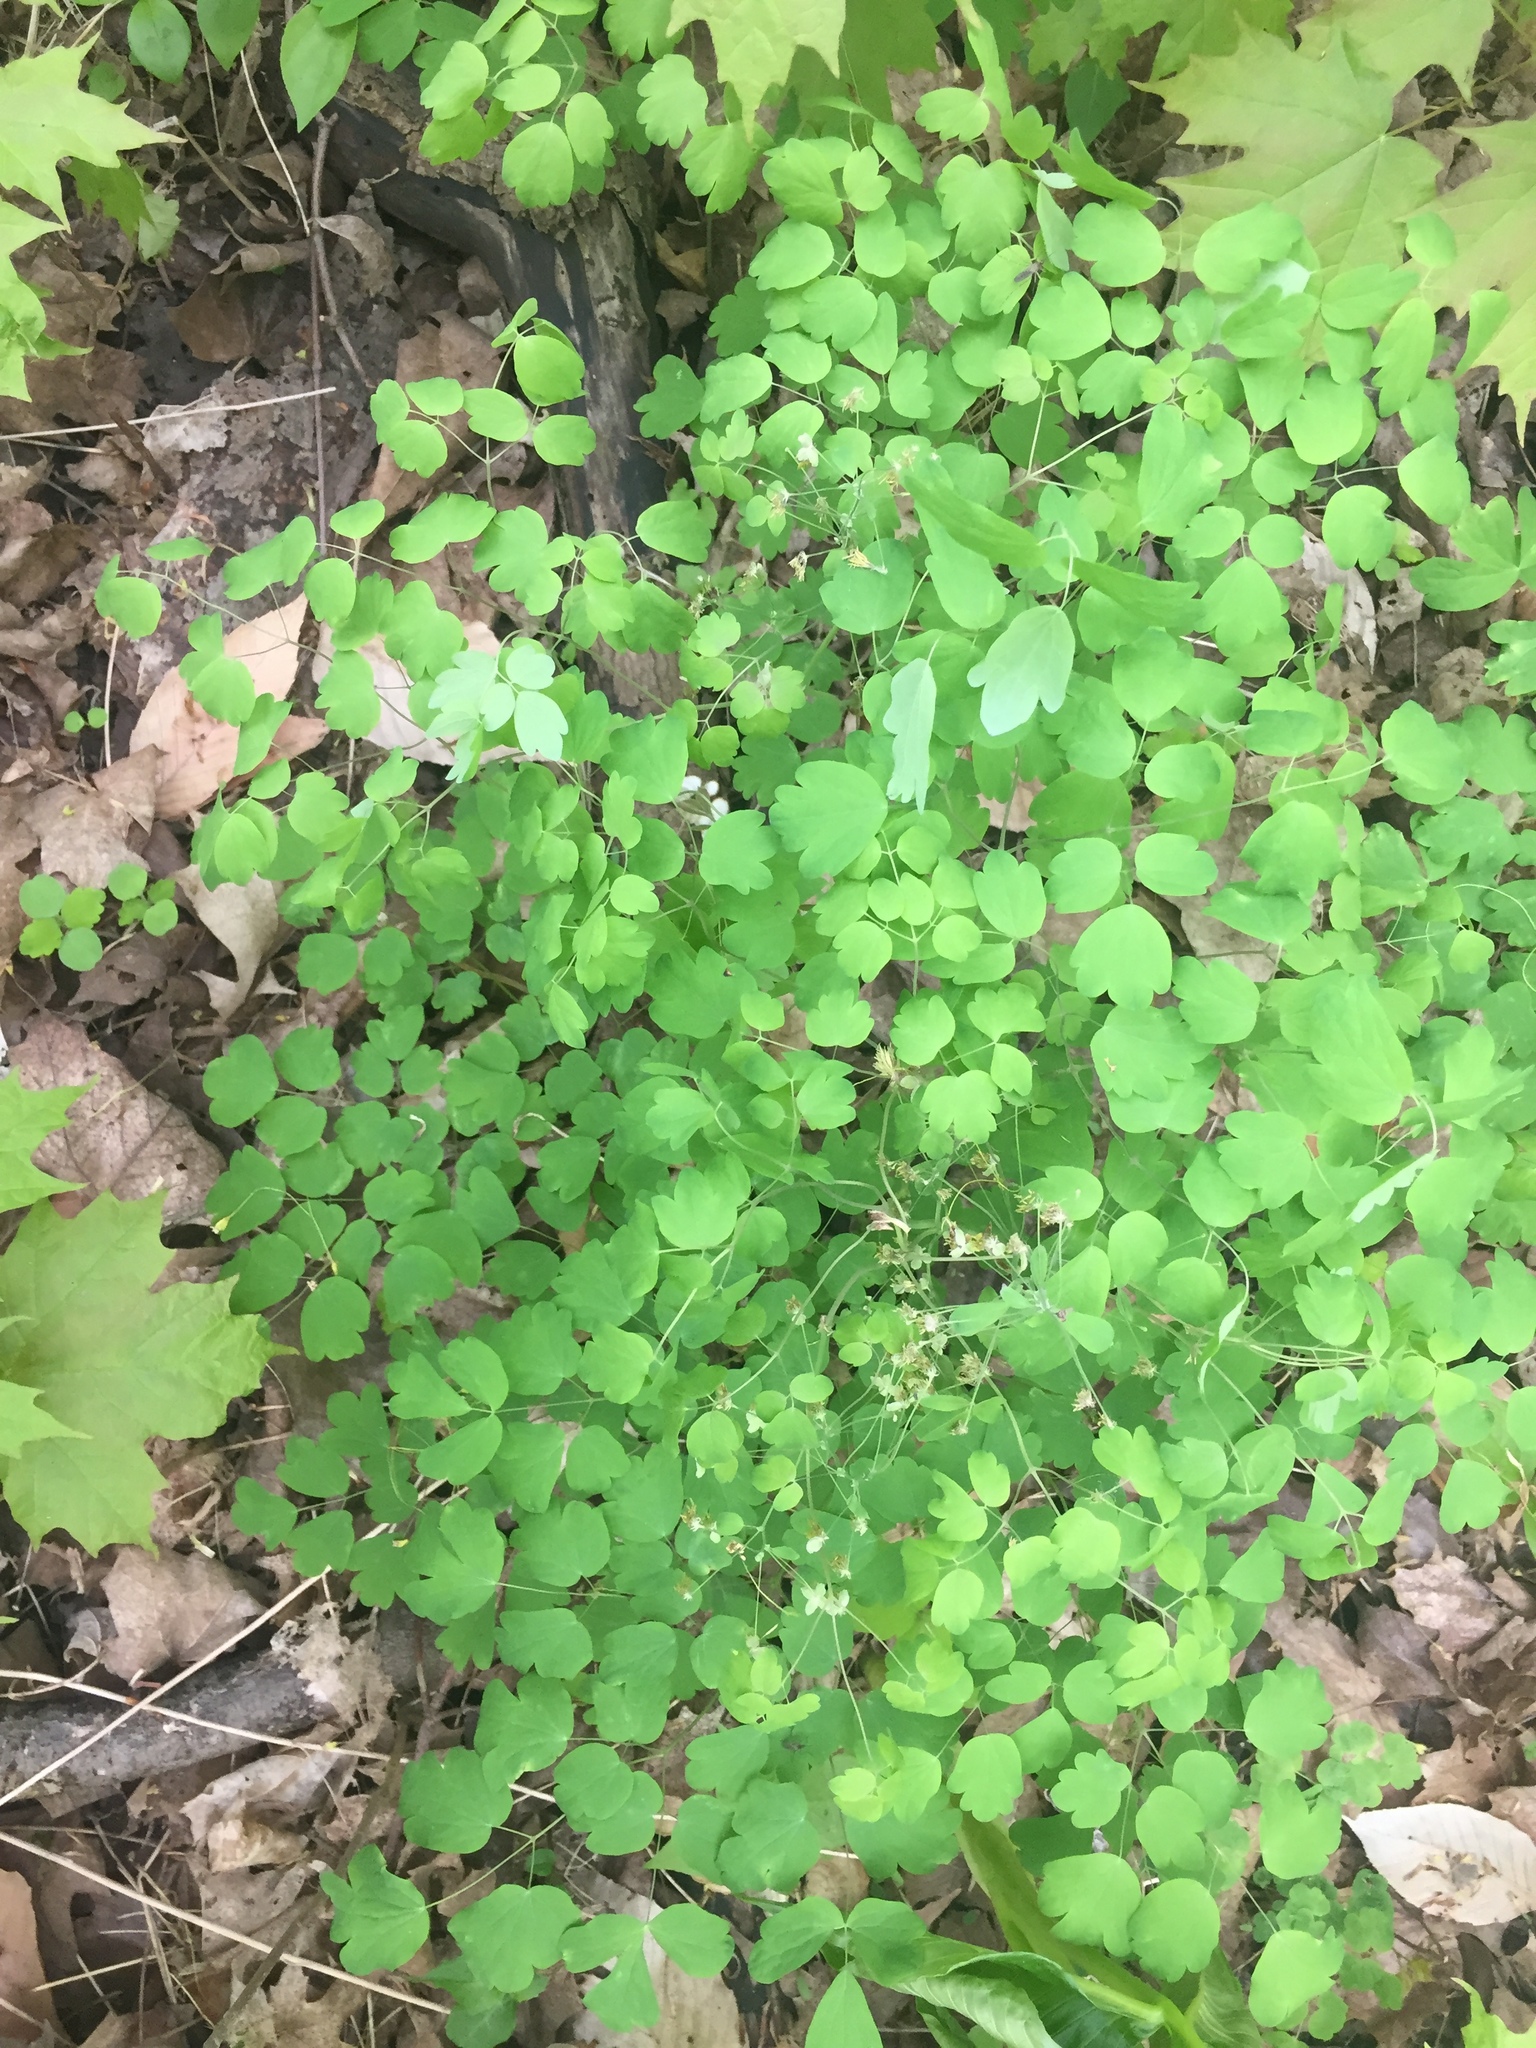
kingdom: Plantae
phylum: Tracheophyta
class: Magnoliopsida
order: Ranunculales
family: Ranunculaceae
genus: Thalictrum
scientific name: Thalictrum dioicum
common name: Early meadow-rue
